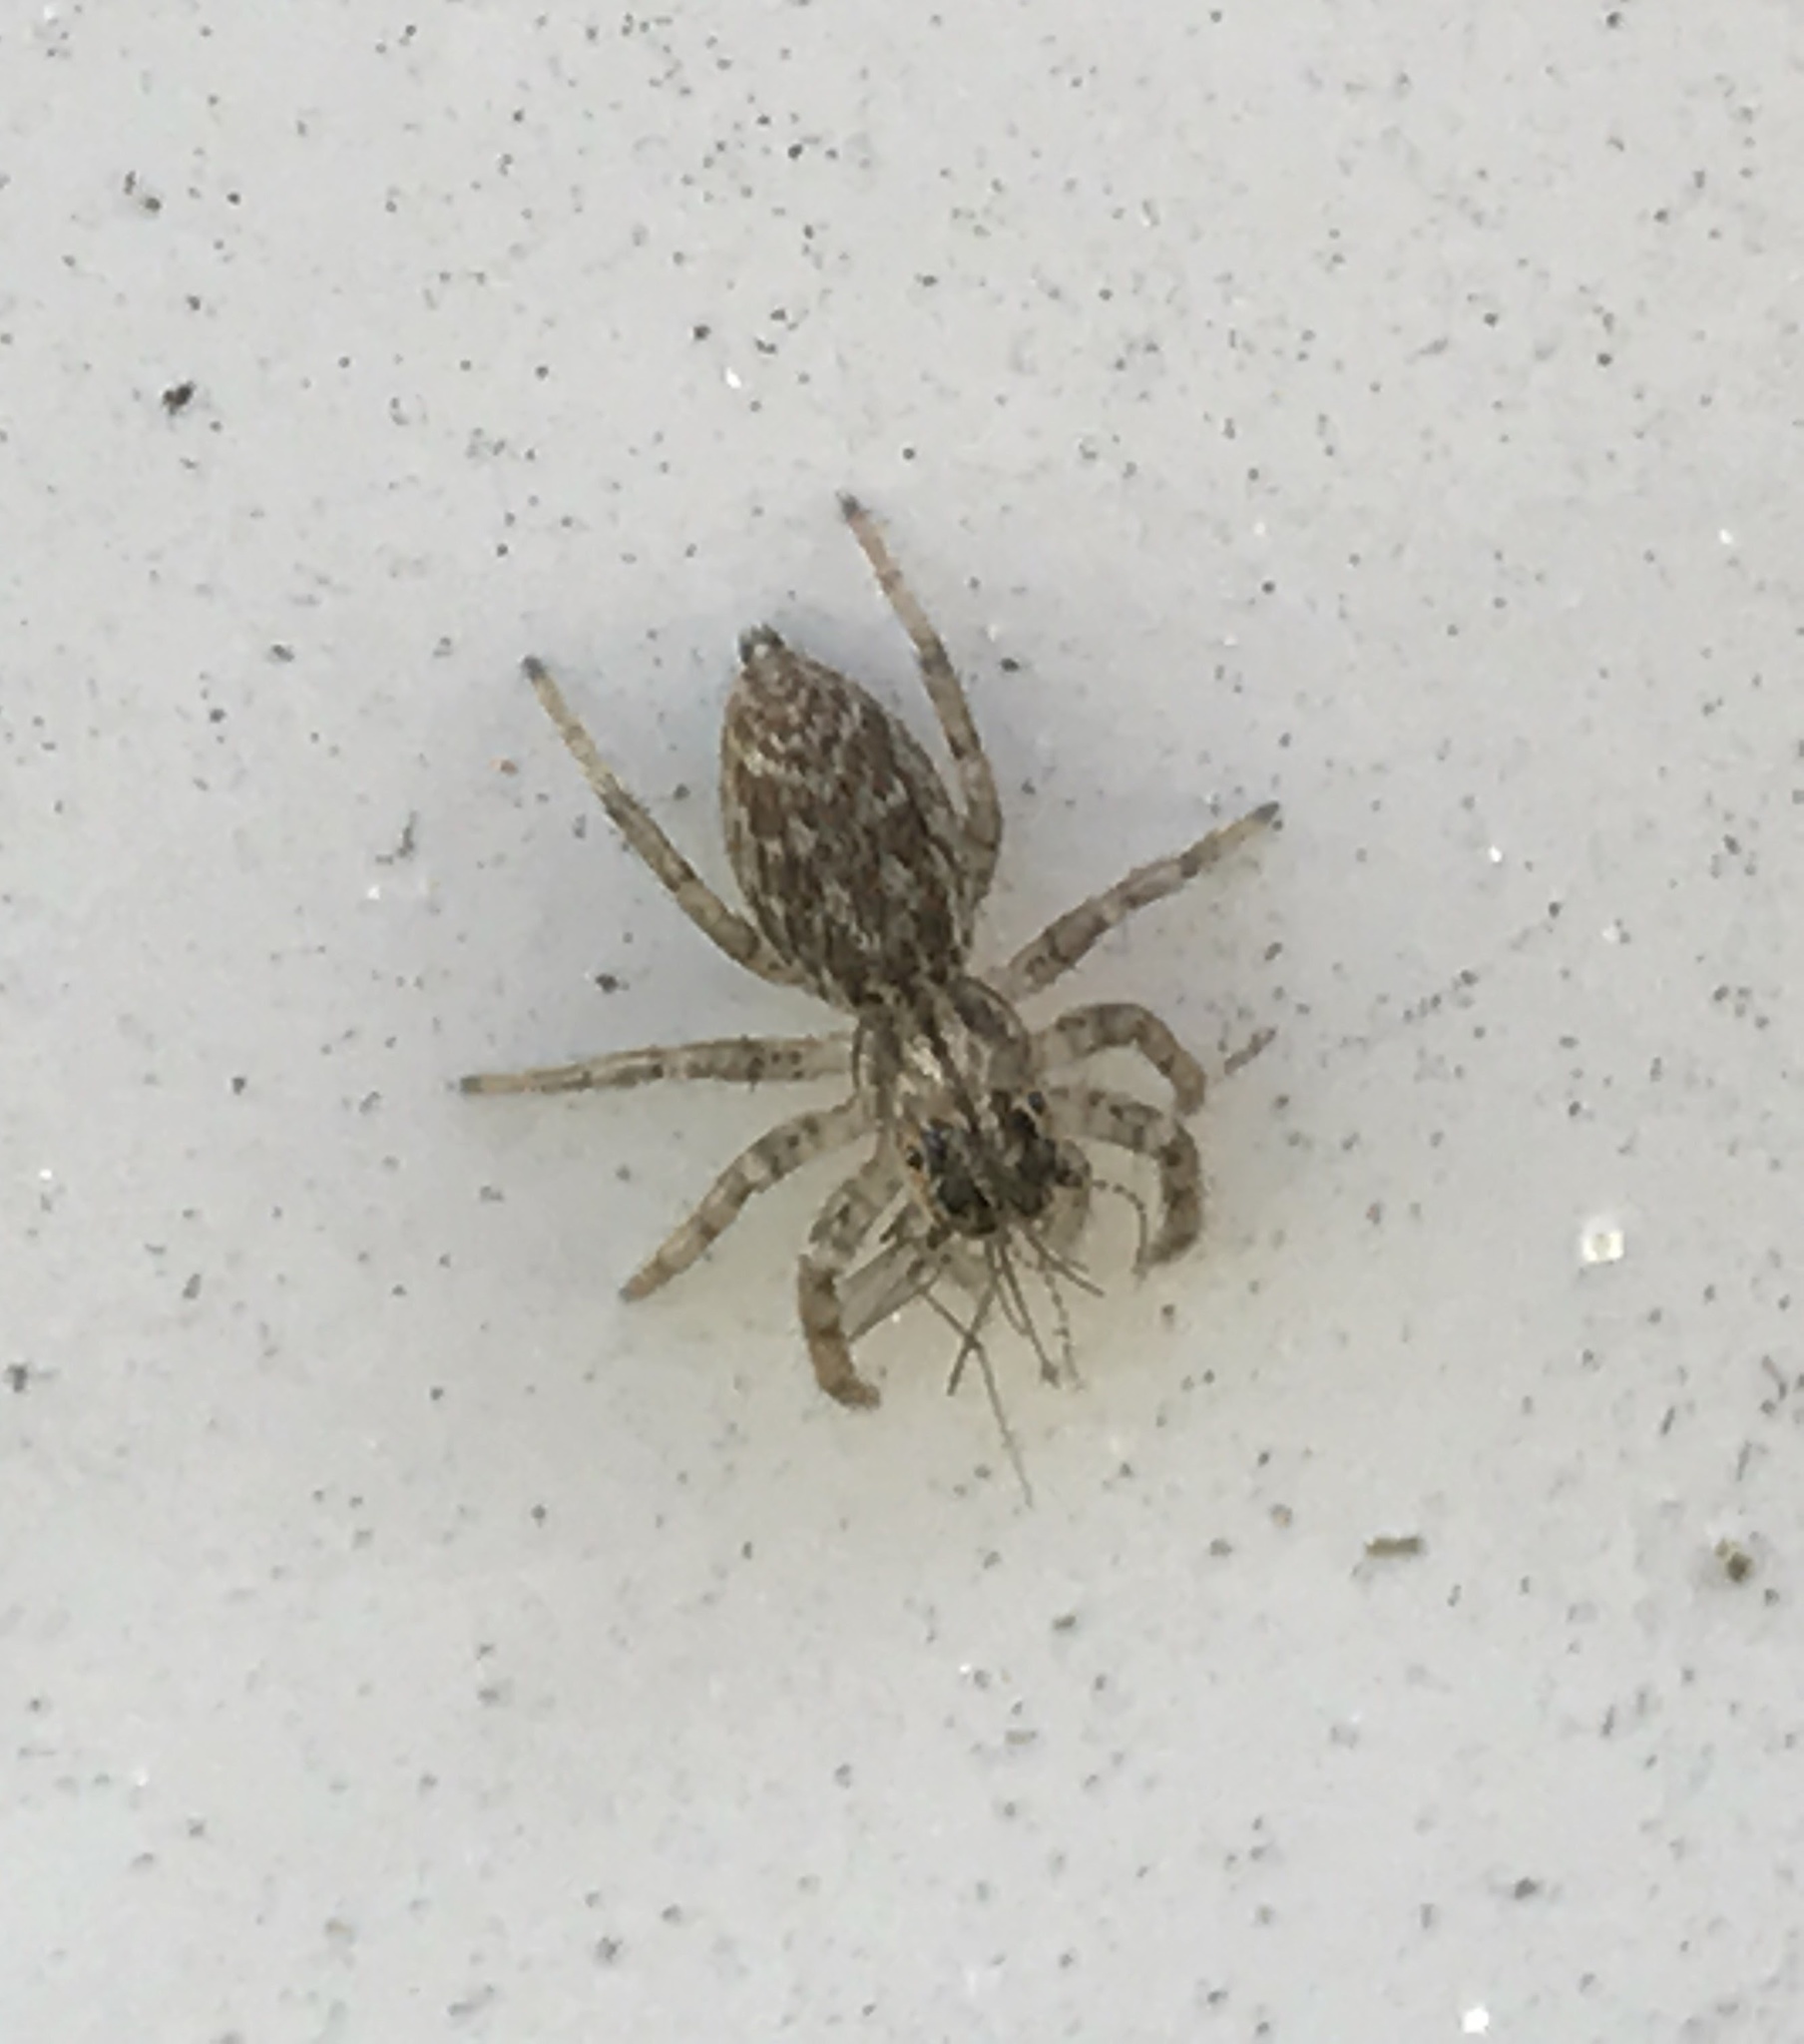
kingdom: Animalia
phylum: Arthropoda
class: Arachnida
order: Araneae
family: Salticidae
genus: Maevia
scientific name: Maevia inclemens
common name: Dimorphic jumper
